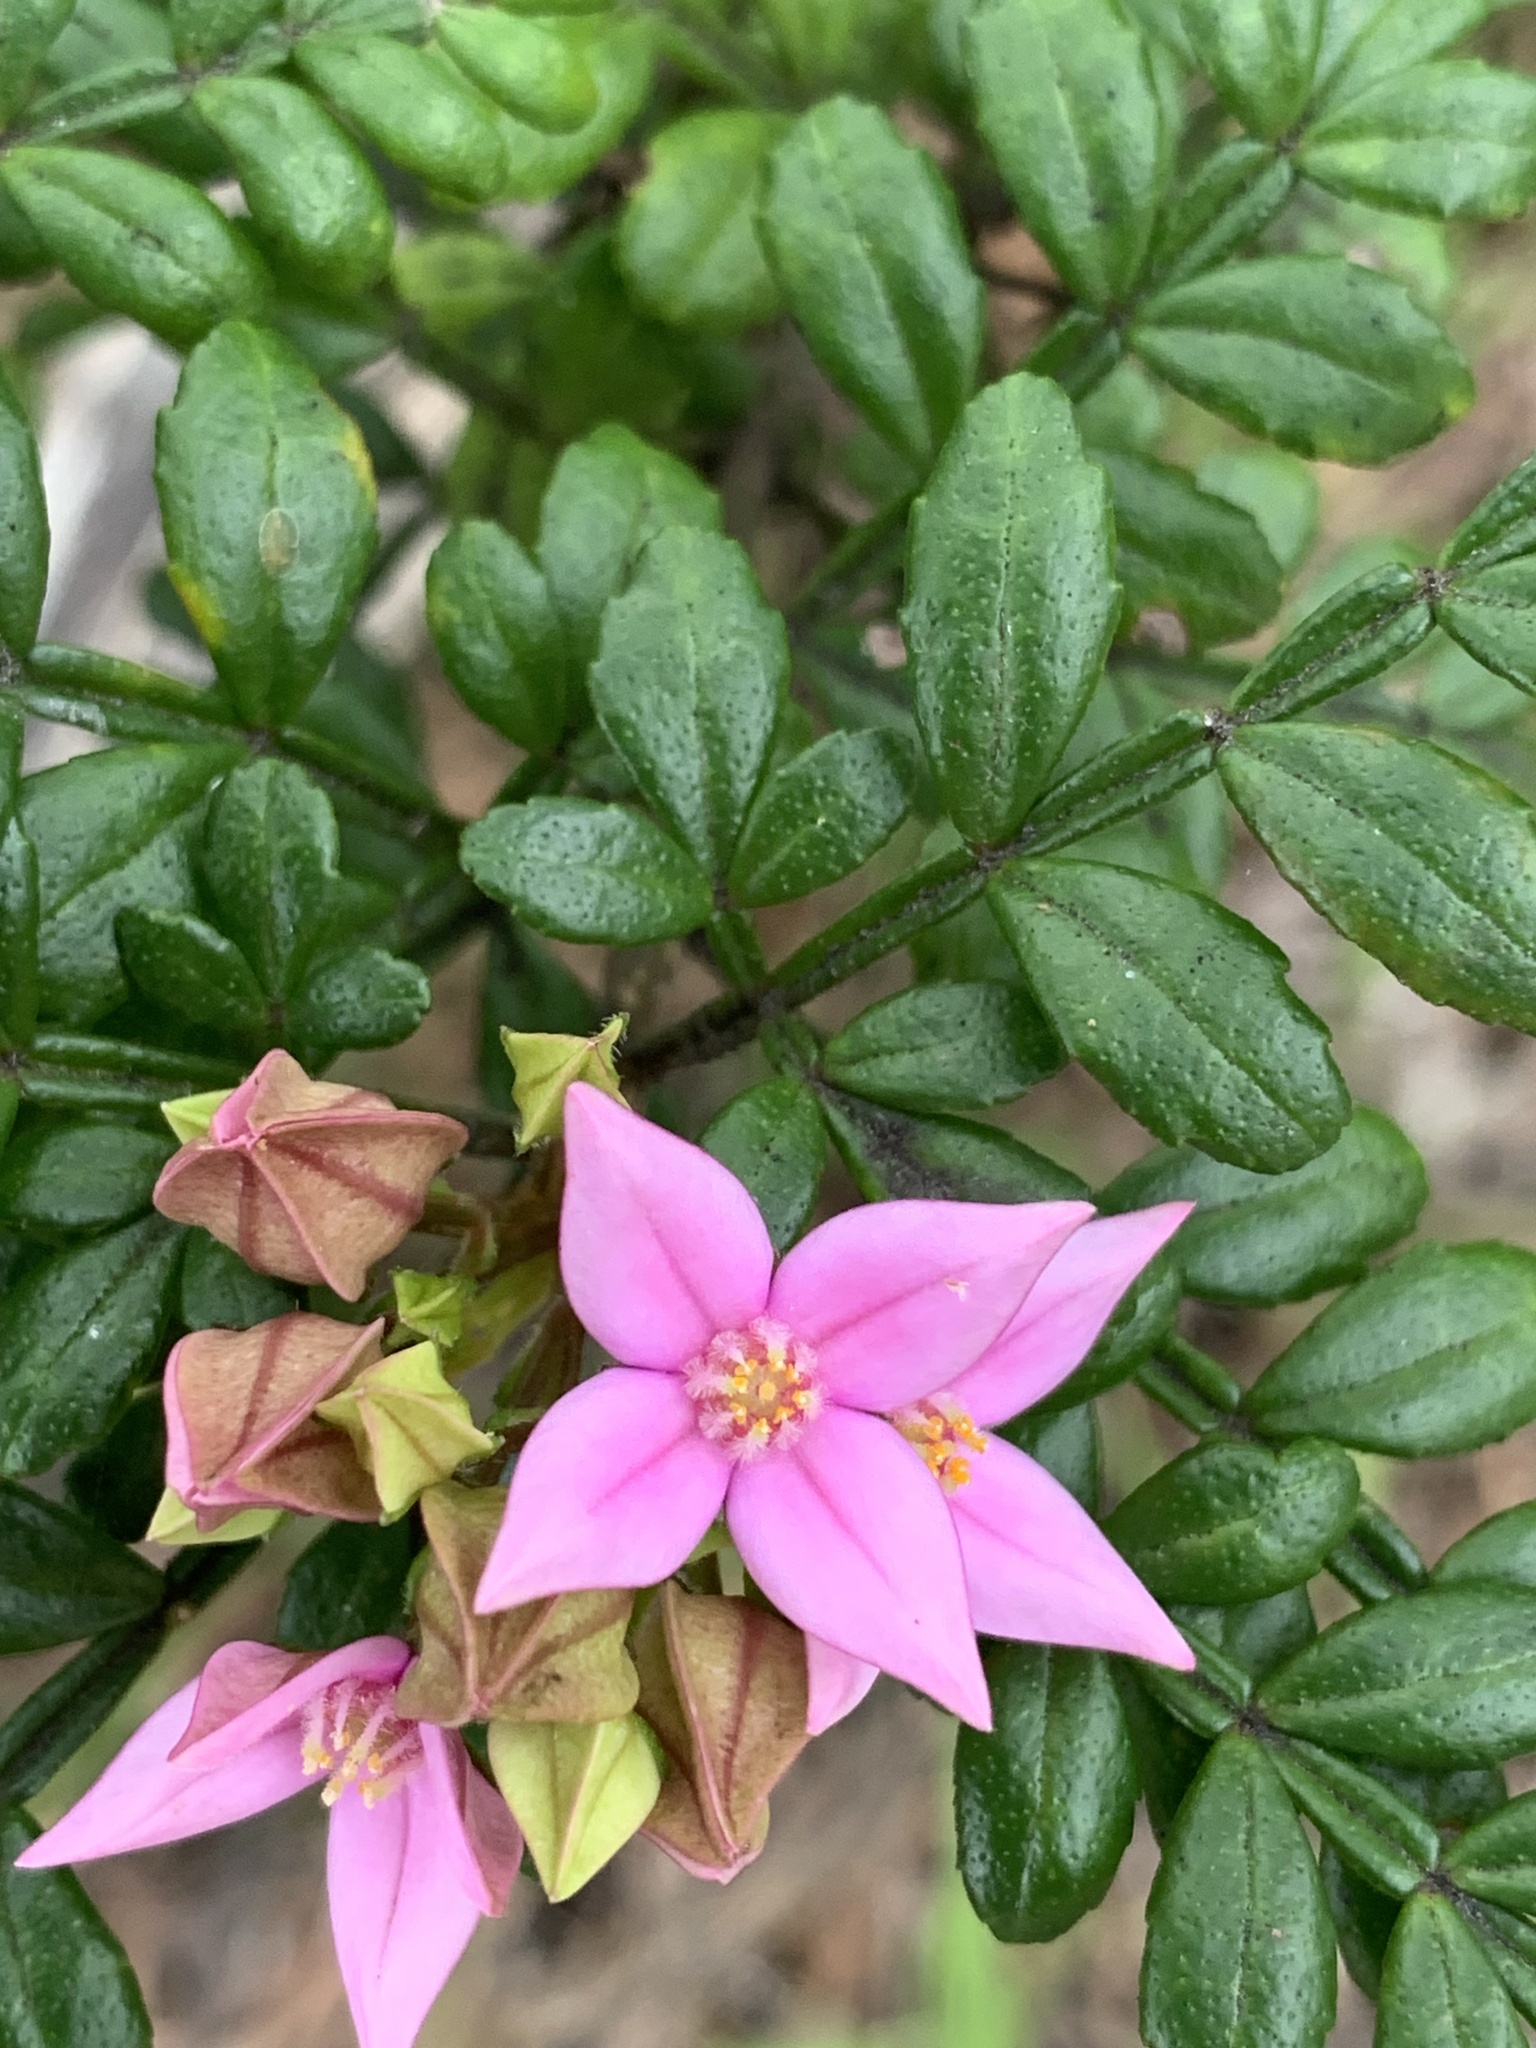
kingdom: Plantae
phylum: Tracheophyta
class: Magnoliopsida
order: Sapindales
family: Rutaceae
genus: Boronia
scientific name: Boronia alata
